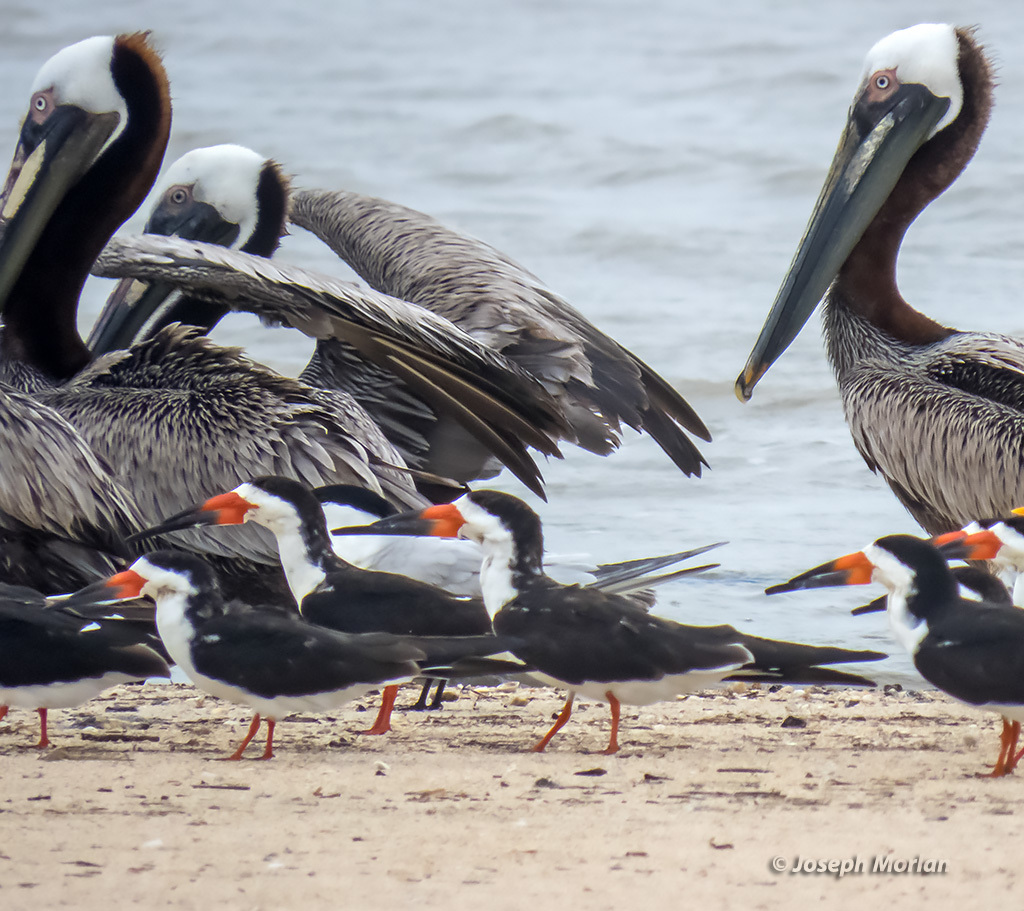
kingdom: Animalia
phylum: Chordata
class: Aves
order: Charadriiformes
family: Laridae
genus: Rynchops
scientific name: Rynchops niger
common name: Black skimmer
